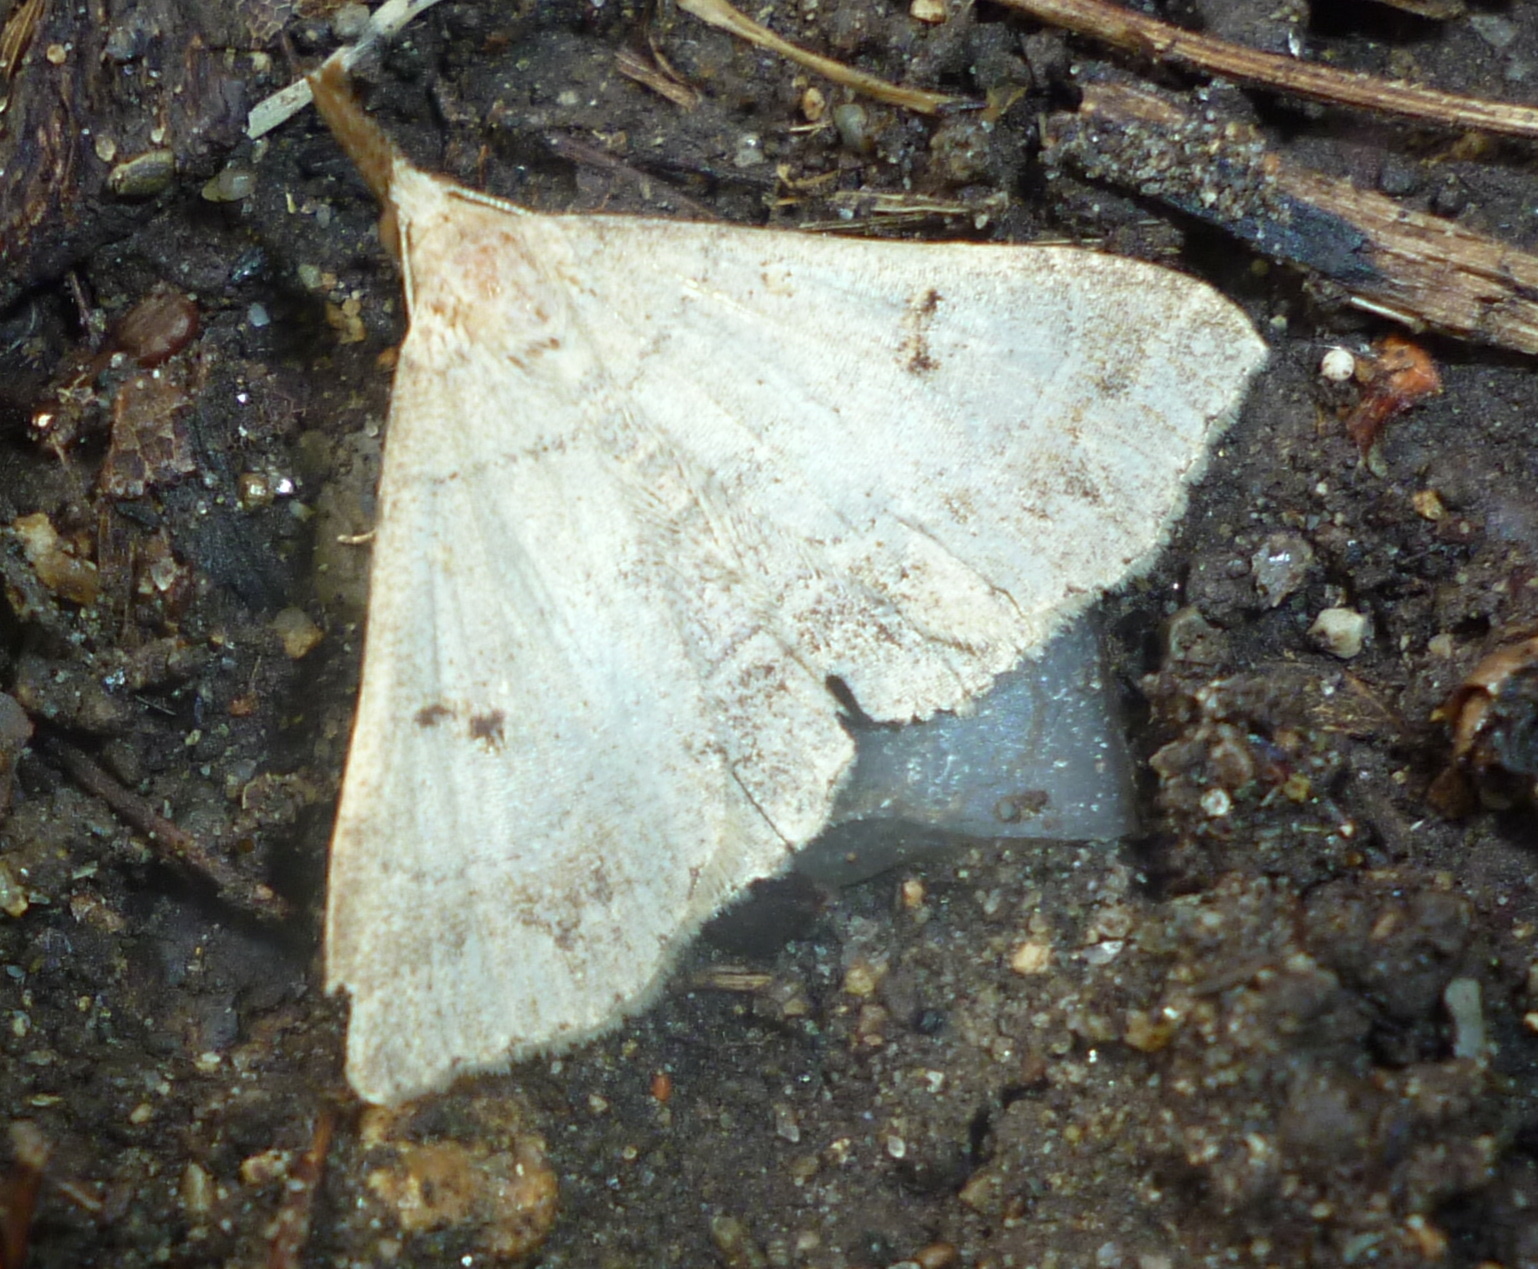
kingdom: Animalia
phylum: Arthropoda
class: Insecta
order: Lepidoptera
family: Erebidae
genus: Renia
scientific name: Renia flavipunctalis
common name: Yellow-spotted renia moth
